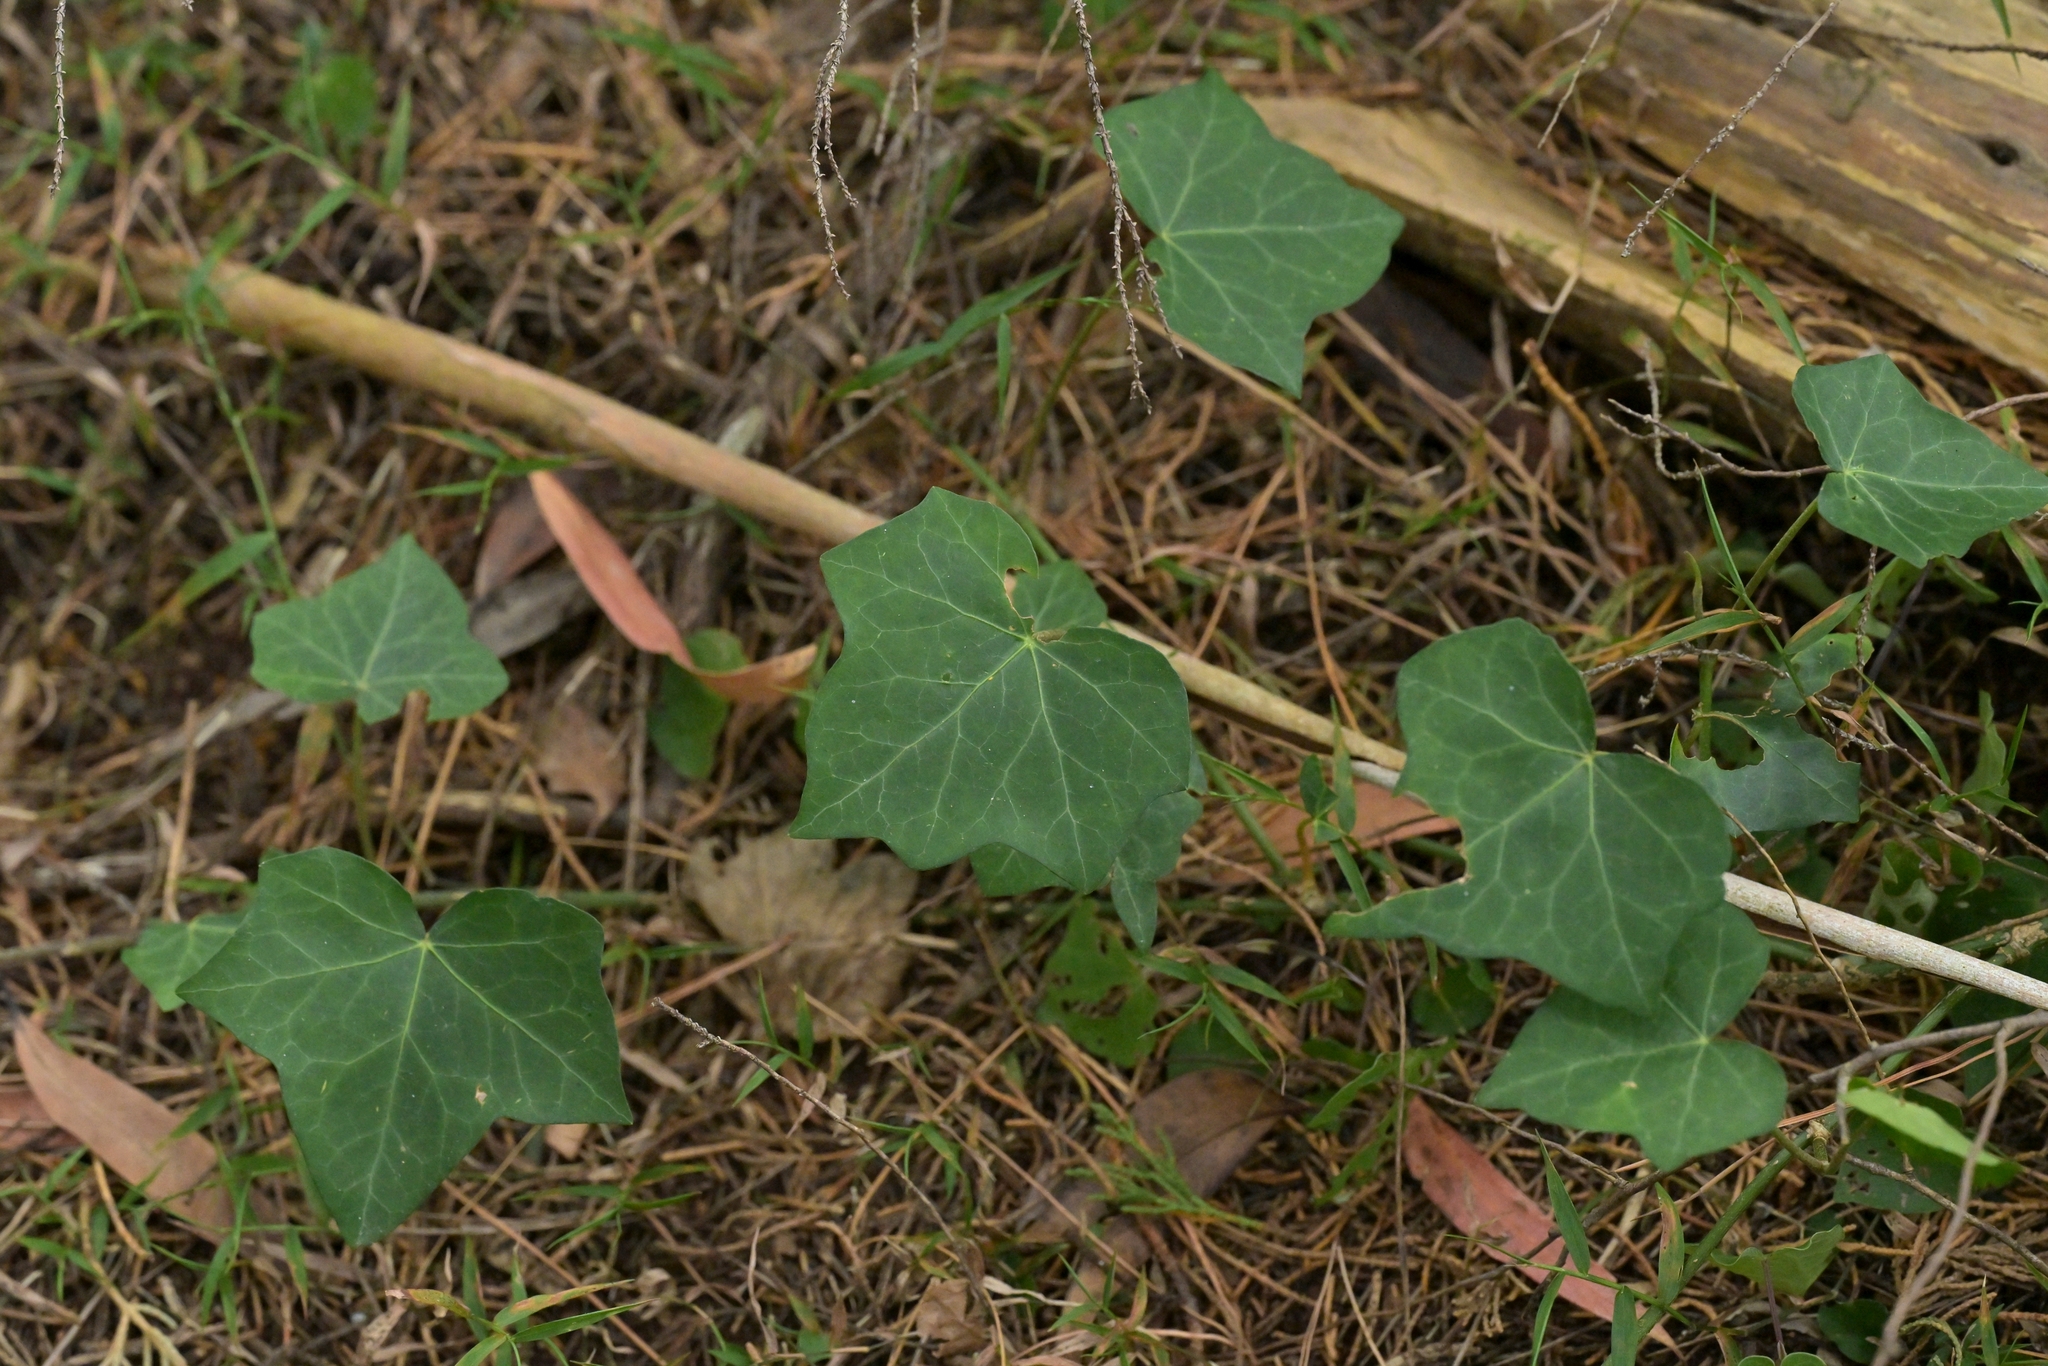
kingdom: Plantae
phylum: Tracheophyta
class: Magnoliopsida
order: Apiales
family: Araliaceae
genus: Hedera
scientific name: Hedera canariensis
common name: Madeira ivy
